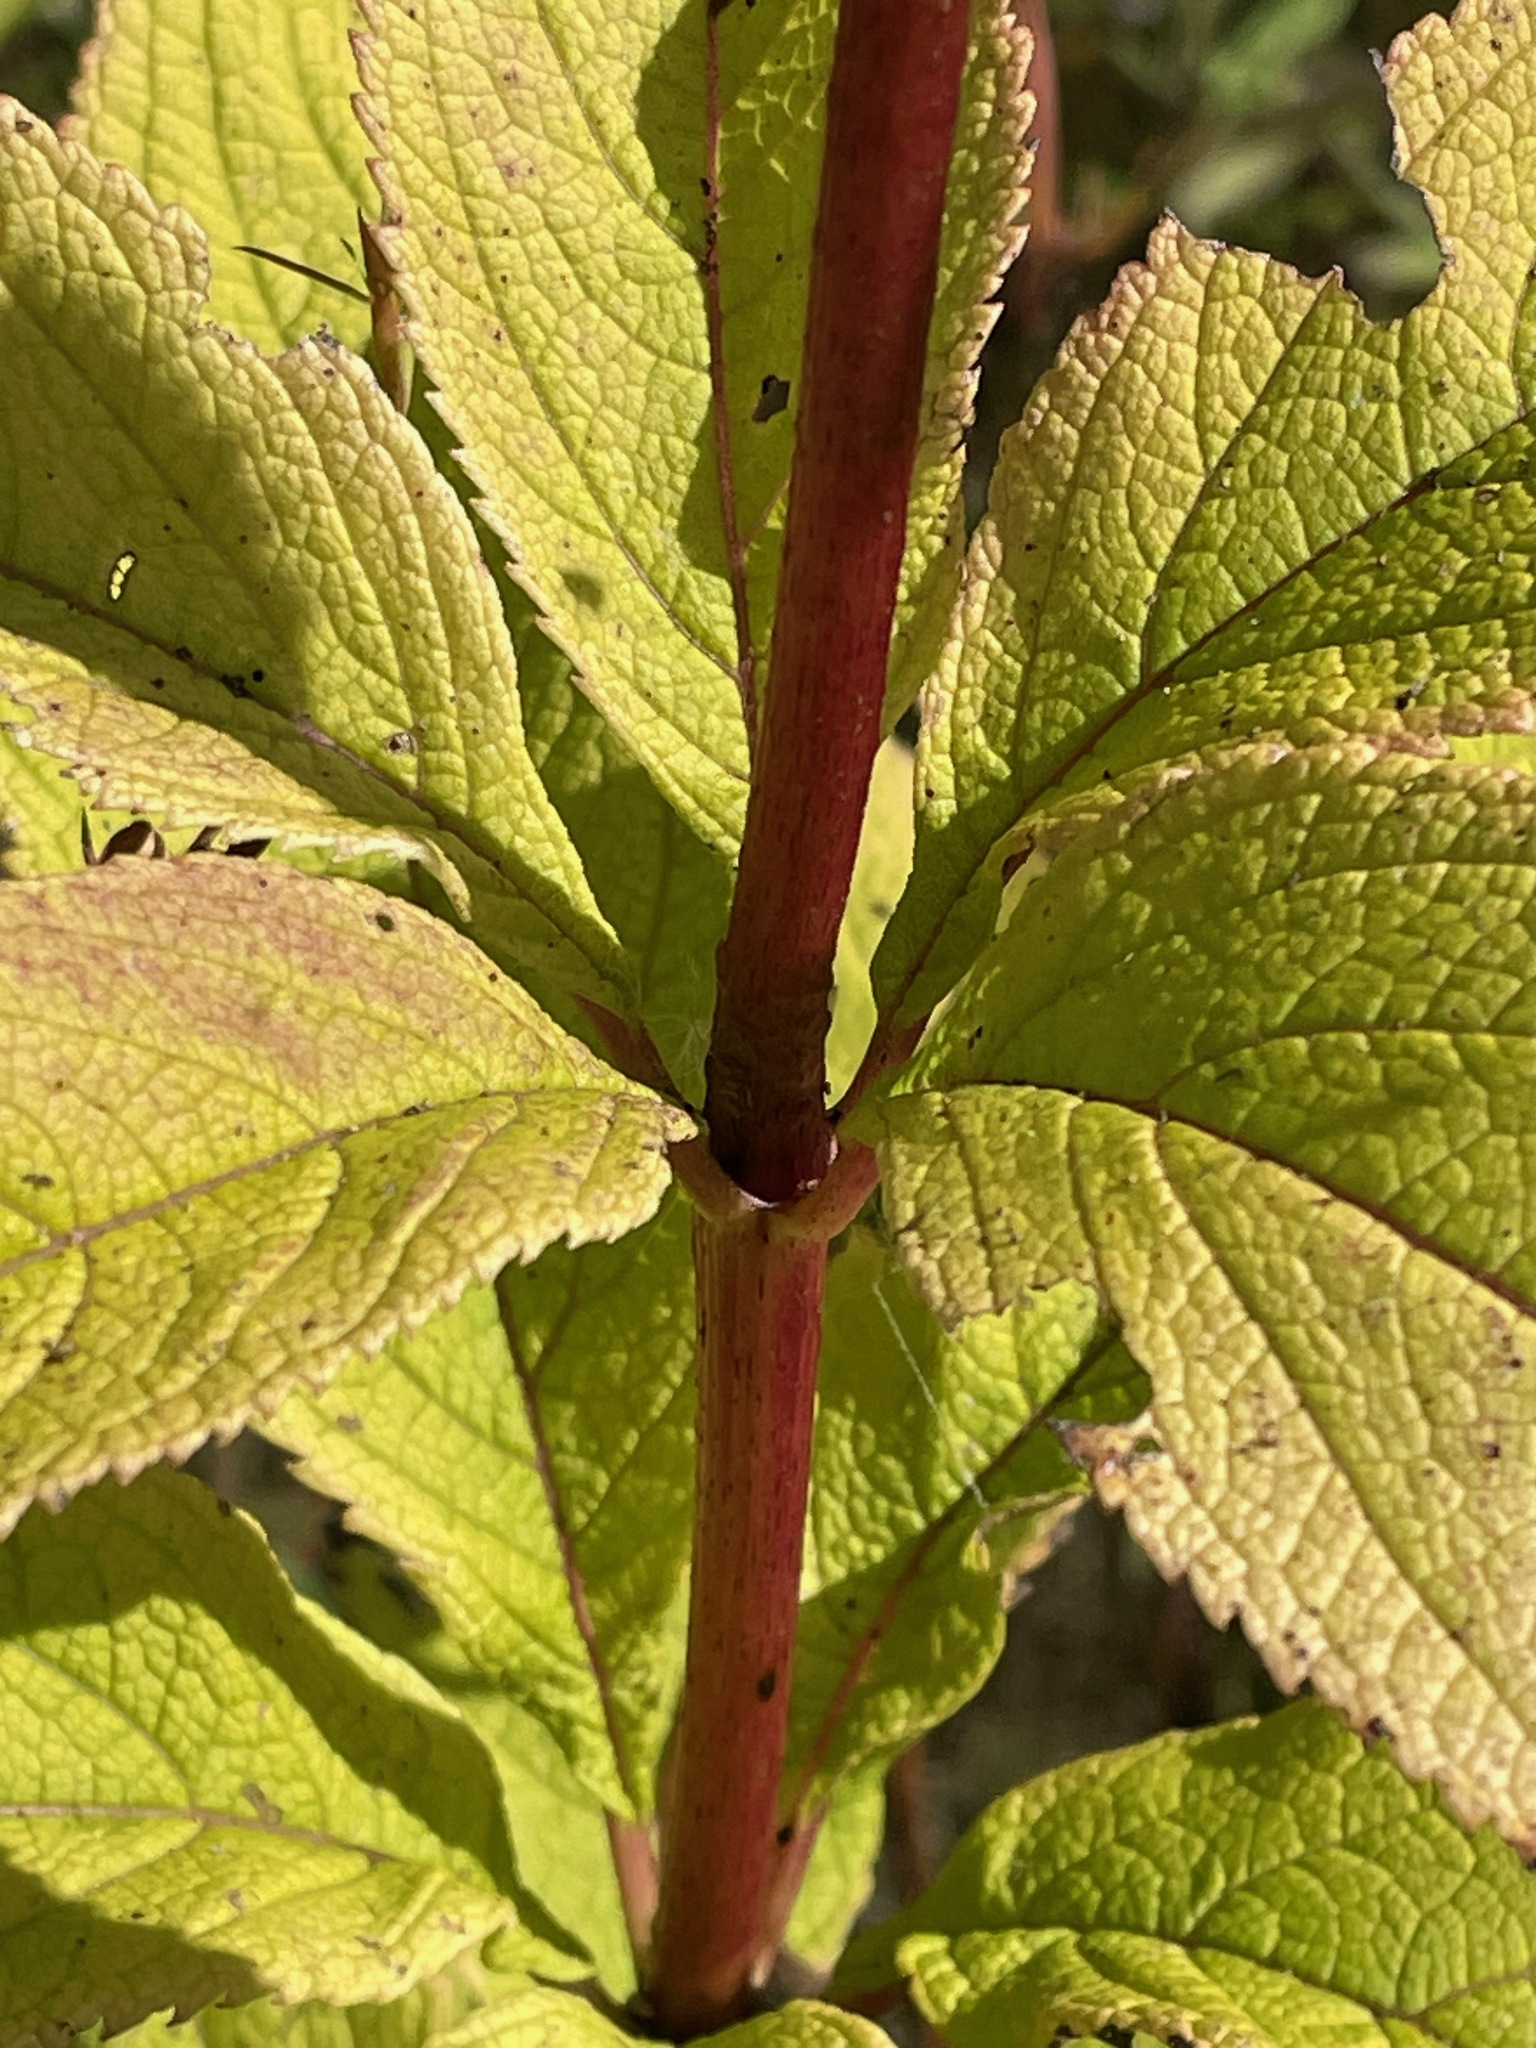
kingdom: Plantae
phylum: Tracheophyta
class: Magnoliopsida
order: Asterales
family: Asteraceae
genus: Eutrochium
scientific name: Eutrochium maculatum
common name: Spotted joe pye weed
